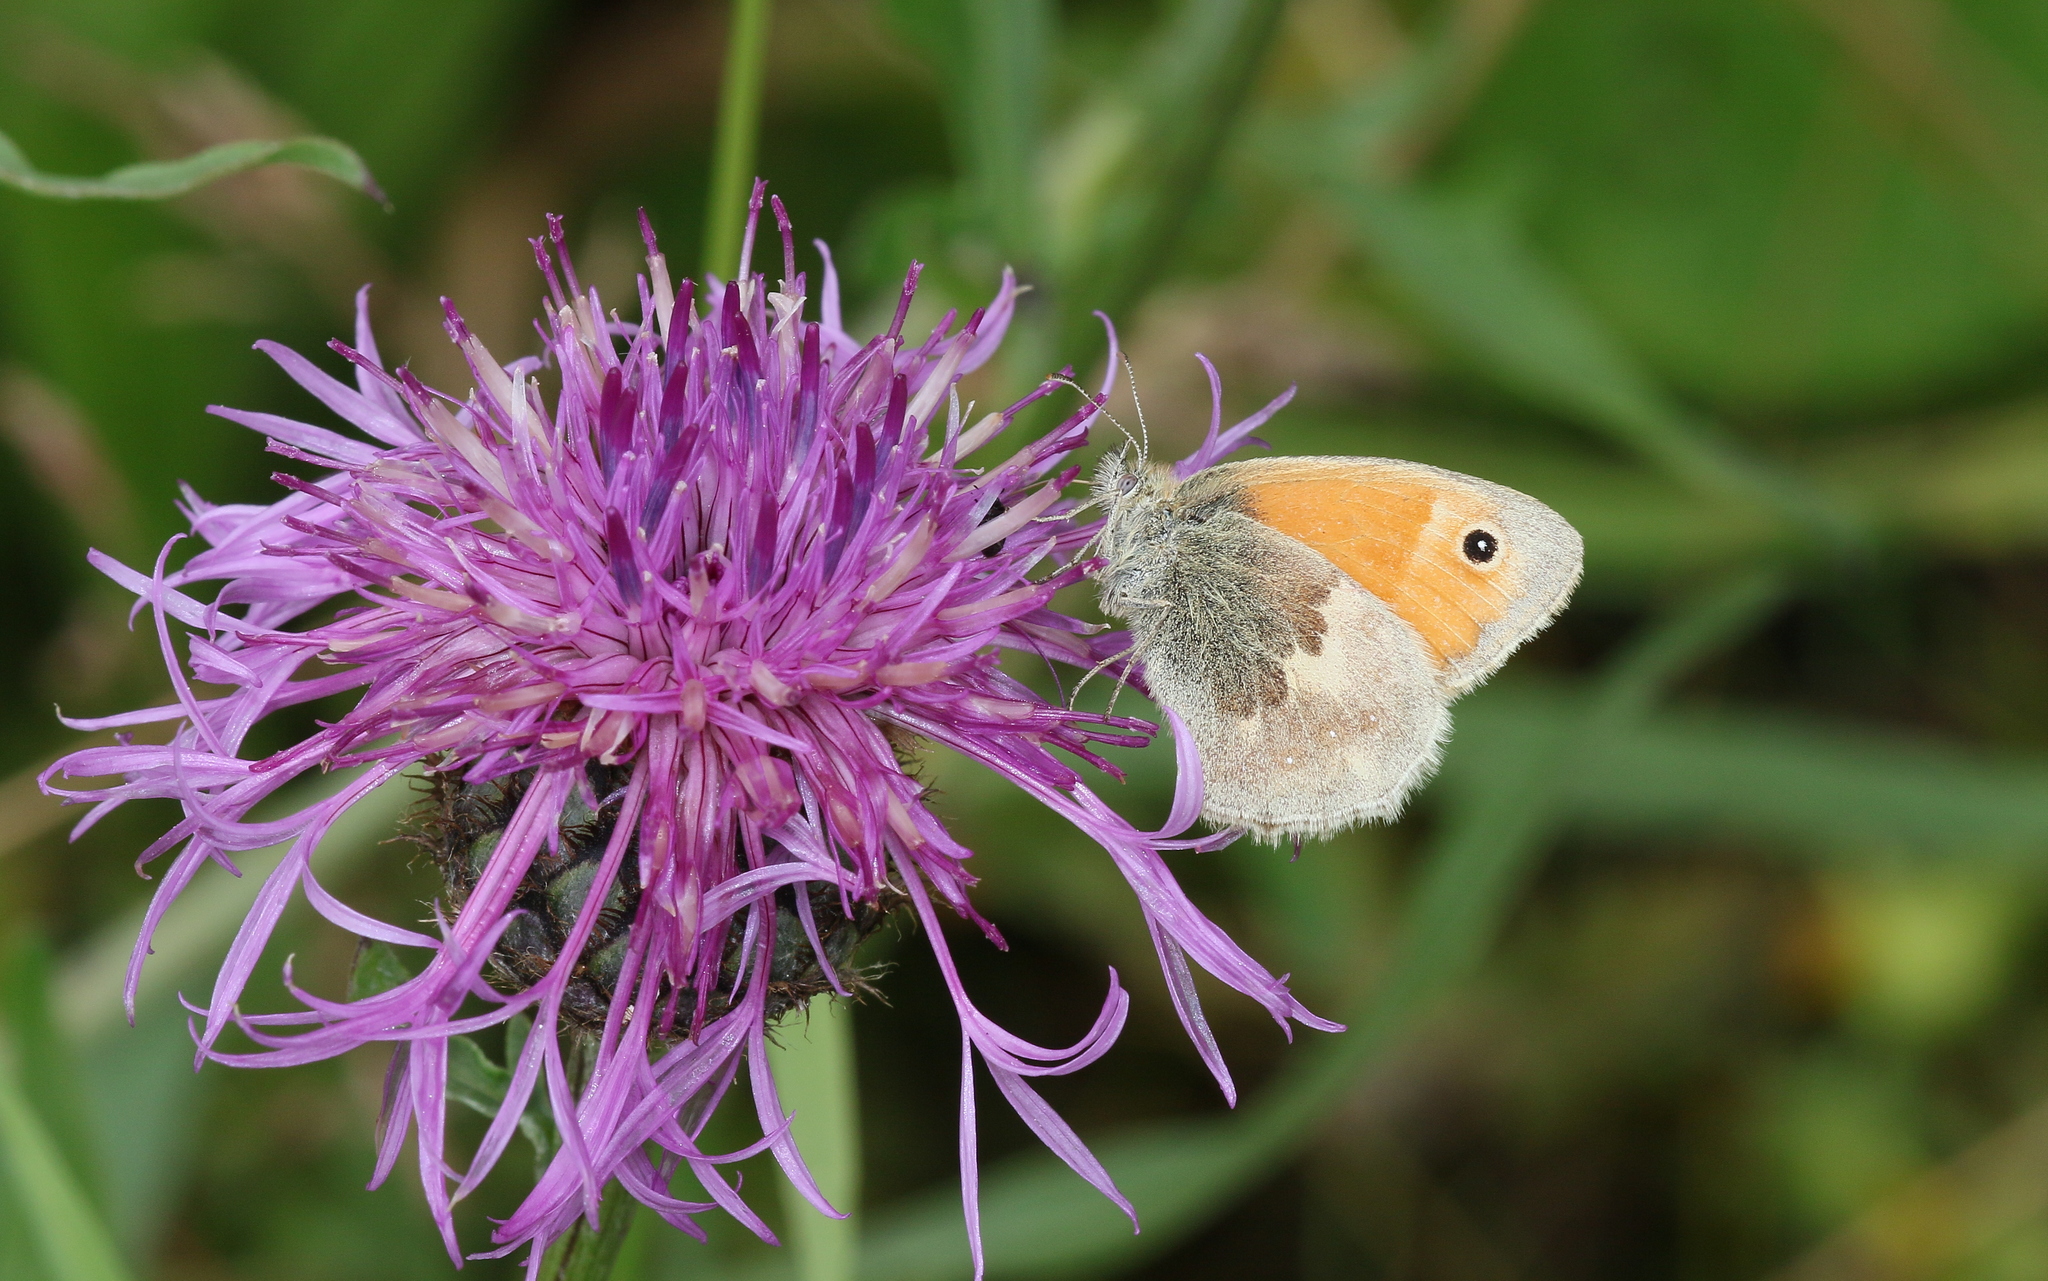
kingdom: Animalia
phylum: Arthropoda
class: Insecta
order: Lepidoptera
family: Nymphalidae
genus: Coenonympha
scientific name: Coenonympha pamphilus
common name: Small heath
